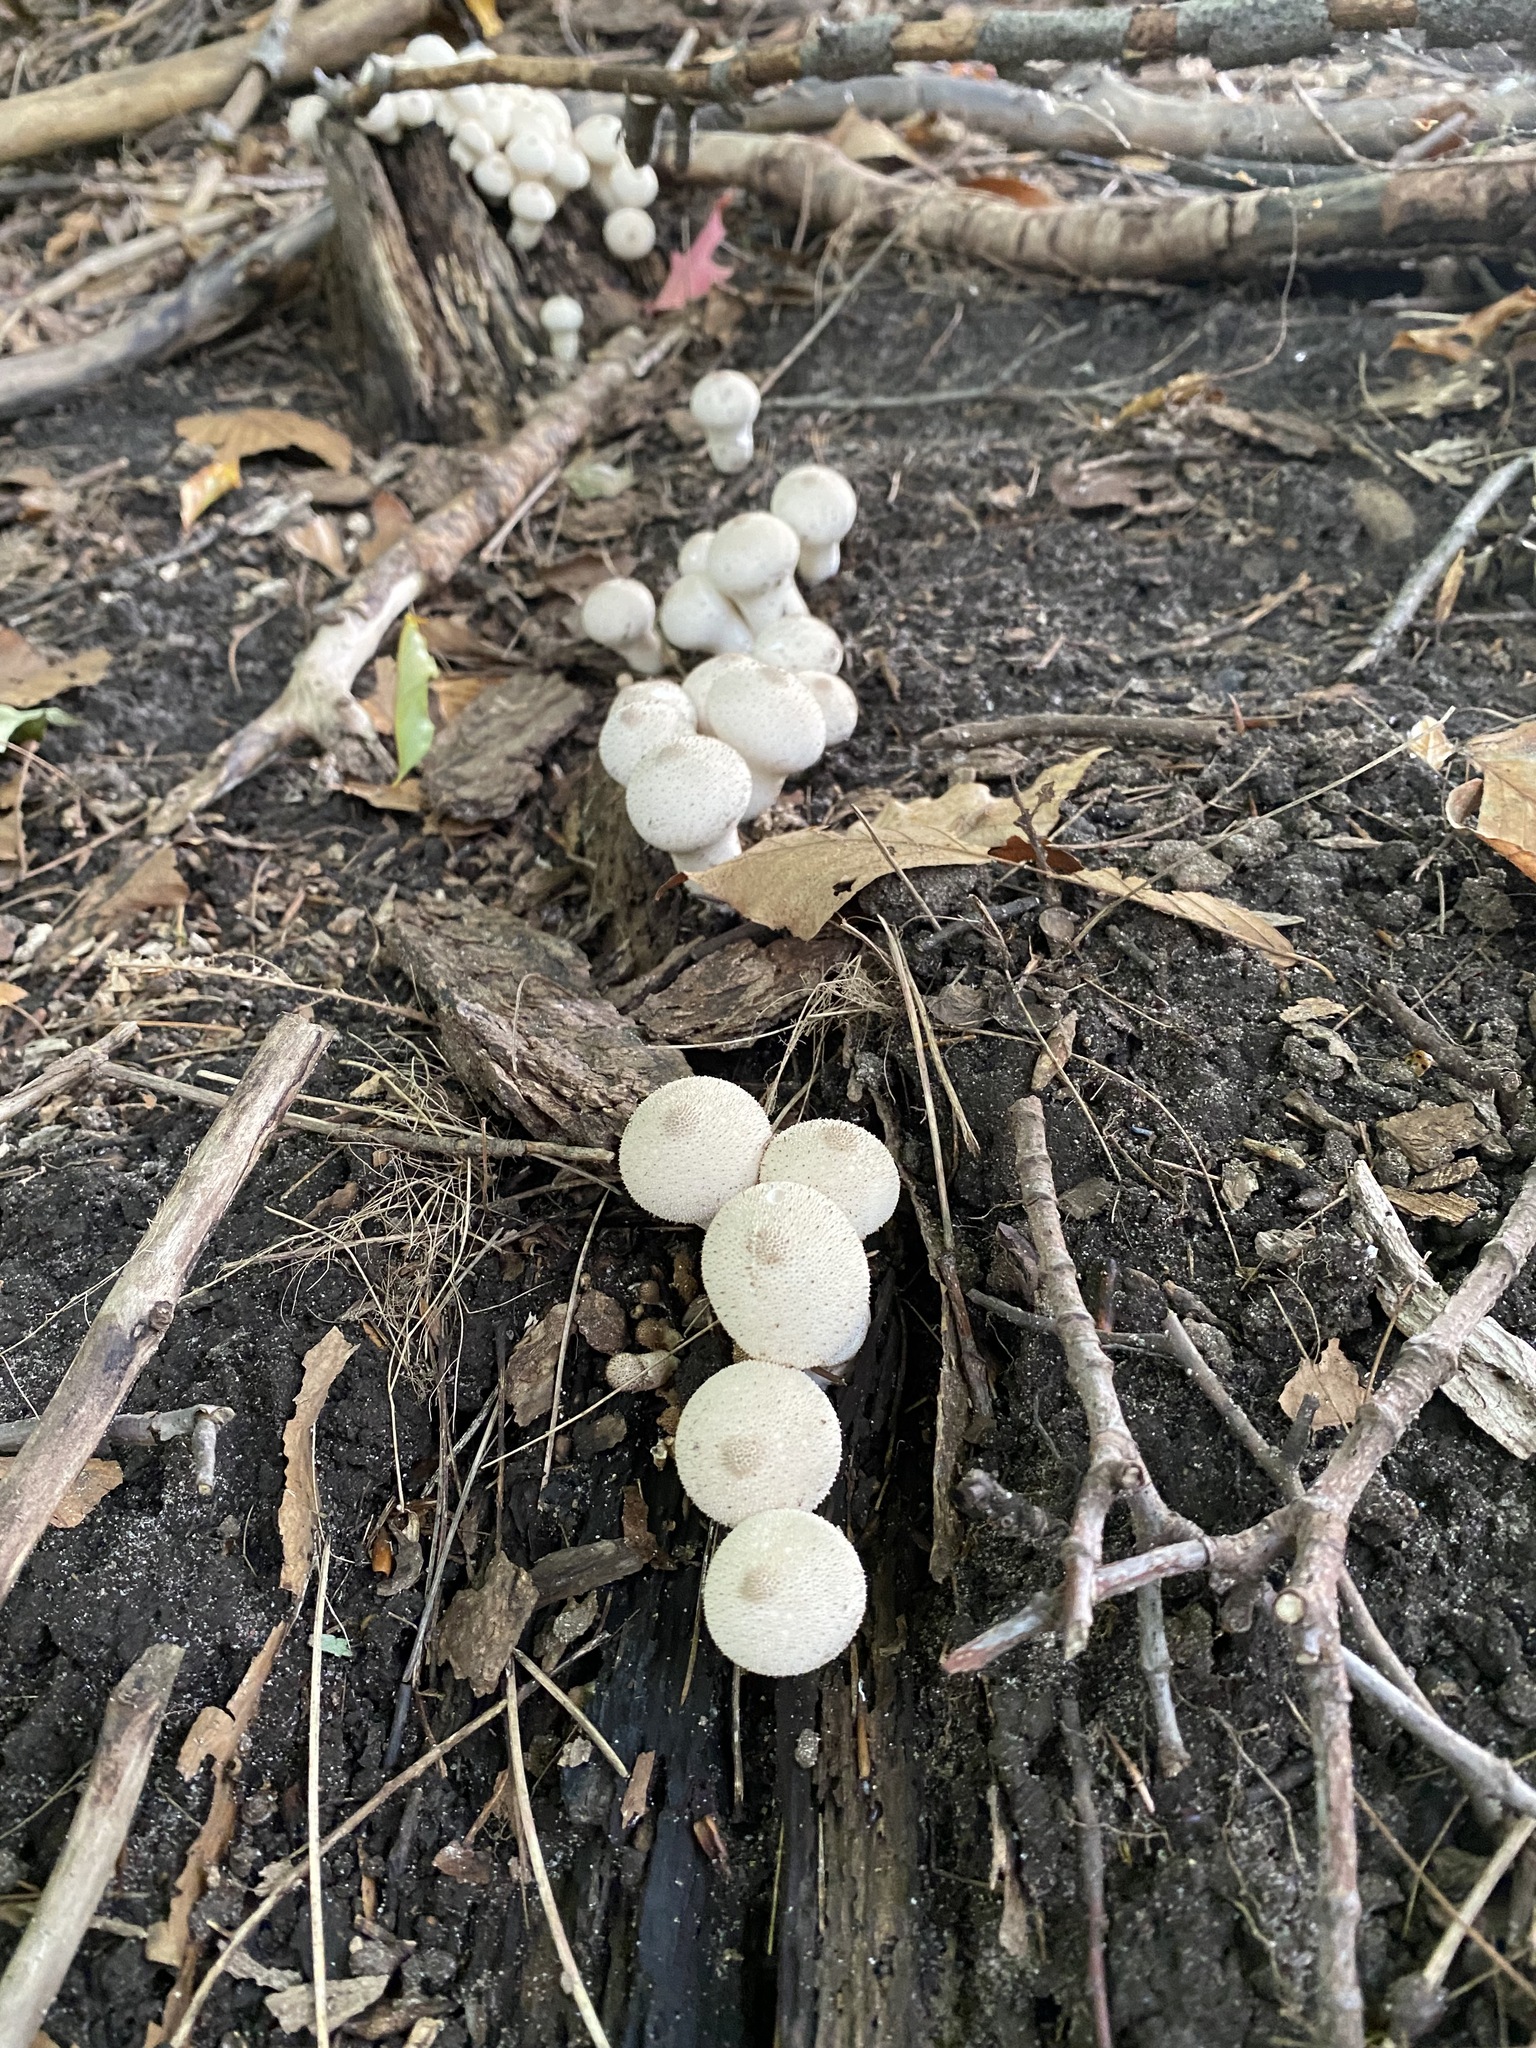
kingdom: Fungi
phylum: Basidiomycota
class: Agaricomycetes
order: Agaricales
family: Lycoperdaceae
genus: Lycoperdon
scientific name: Lycoperdon perlatum
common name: Common puffball
